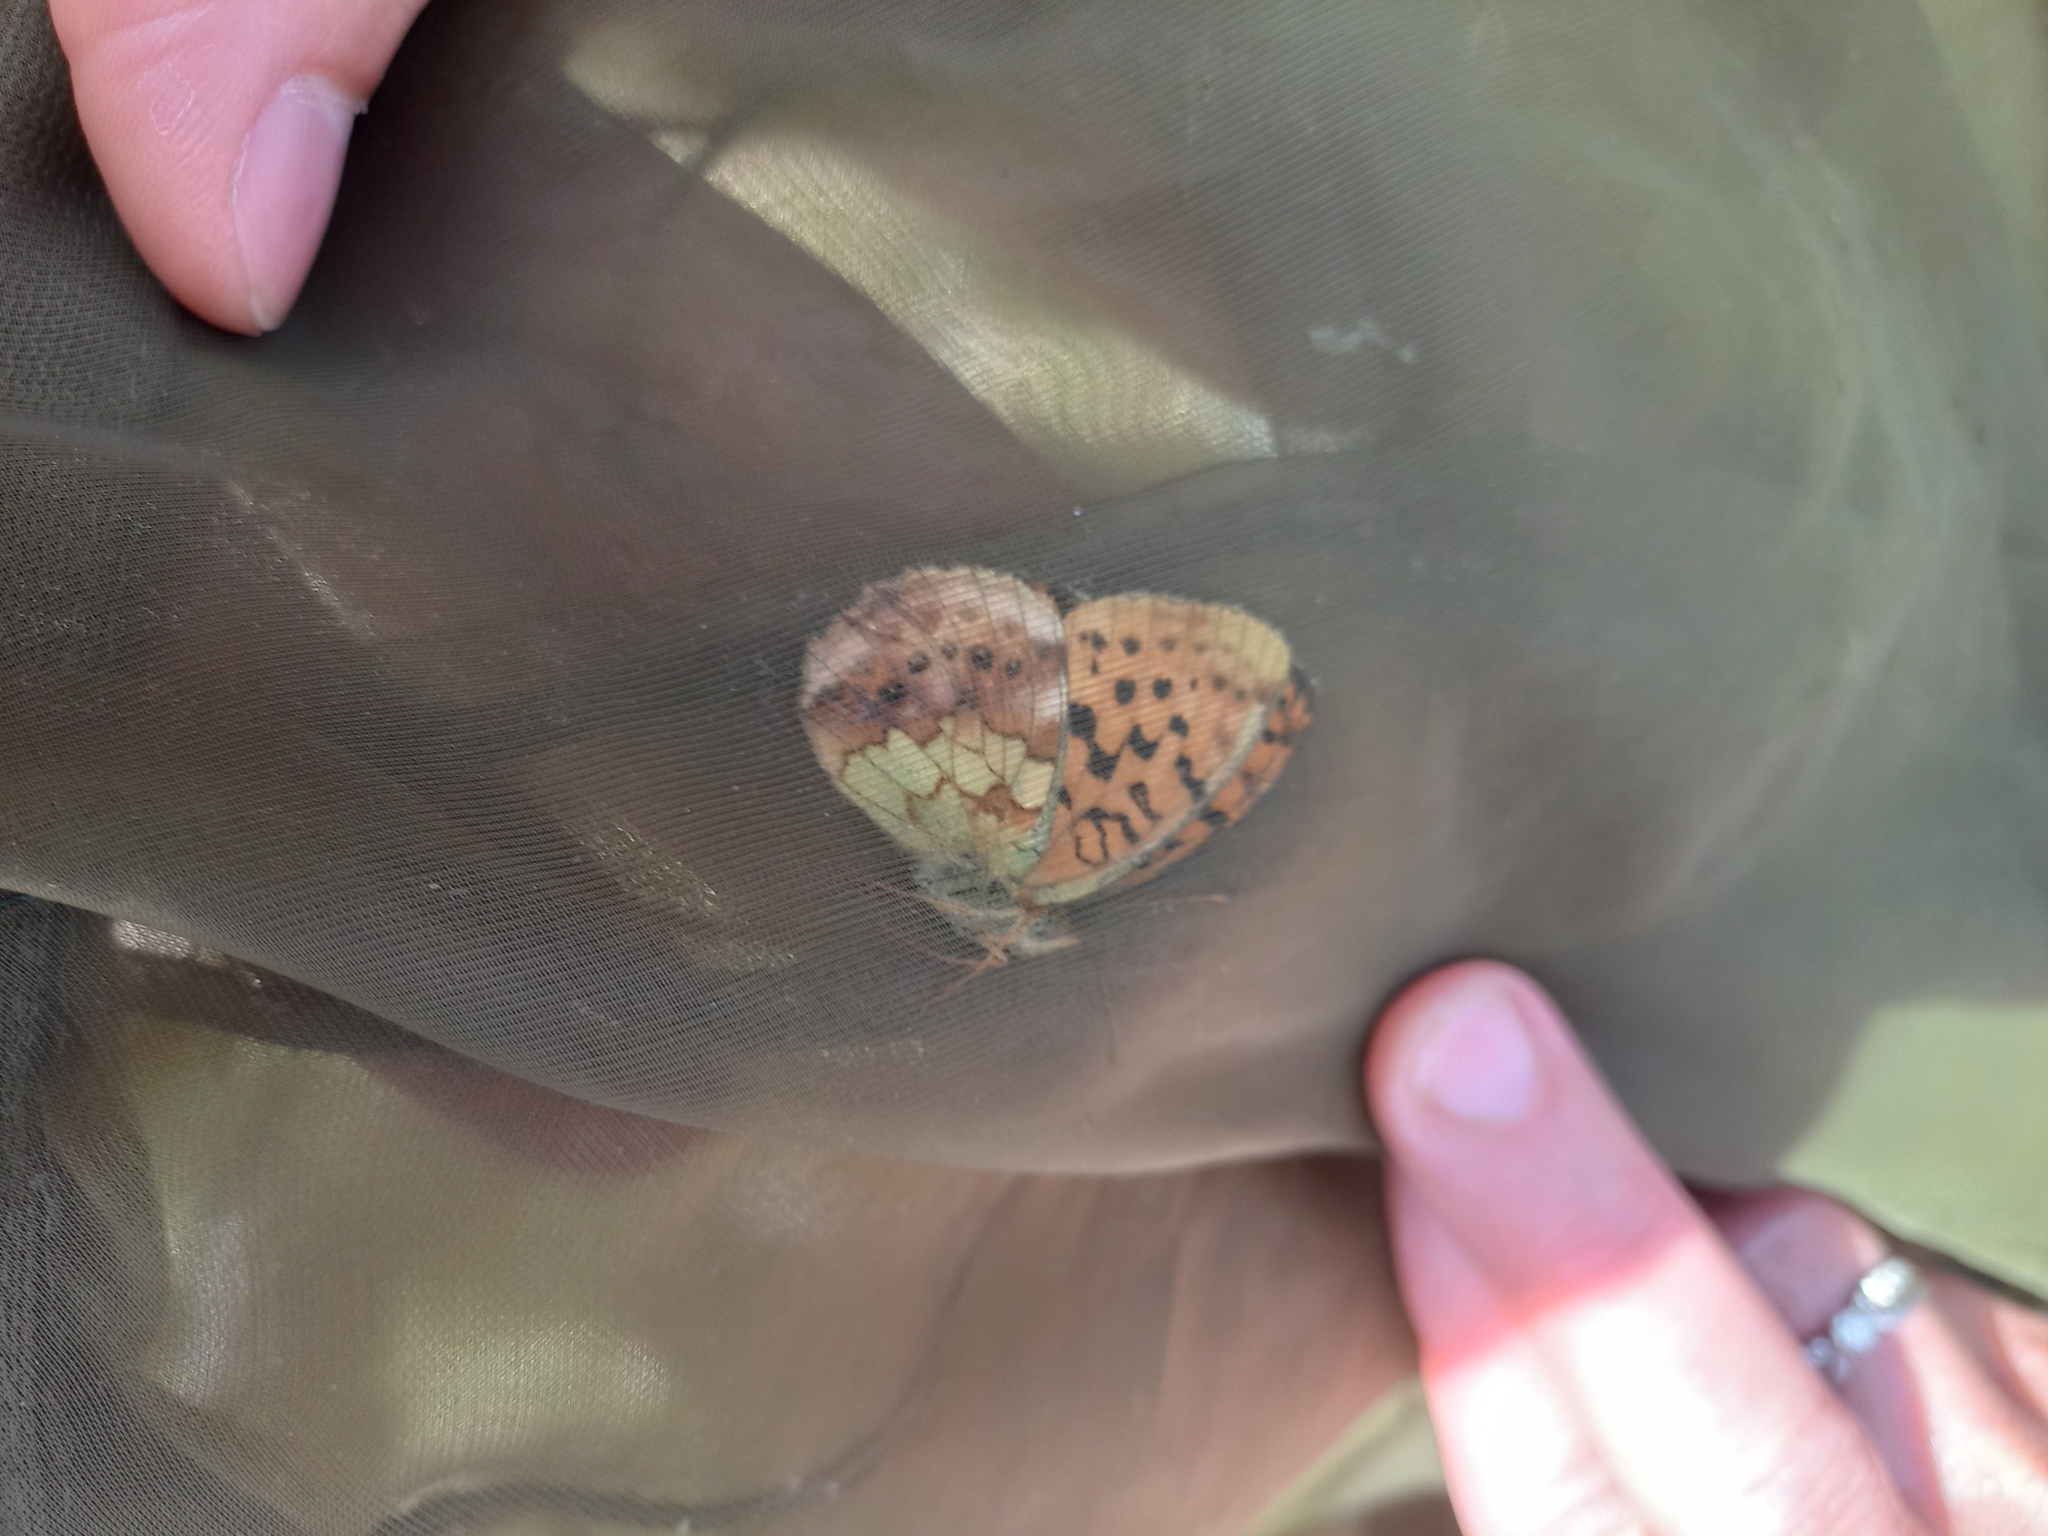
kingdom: Animalia
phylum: Arthropoda
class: Insecta
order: Lepidoptera
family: Nymphalidae
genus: Brenthis
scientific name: Brenthis daphne
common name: Marbled fritillary
